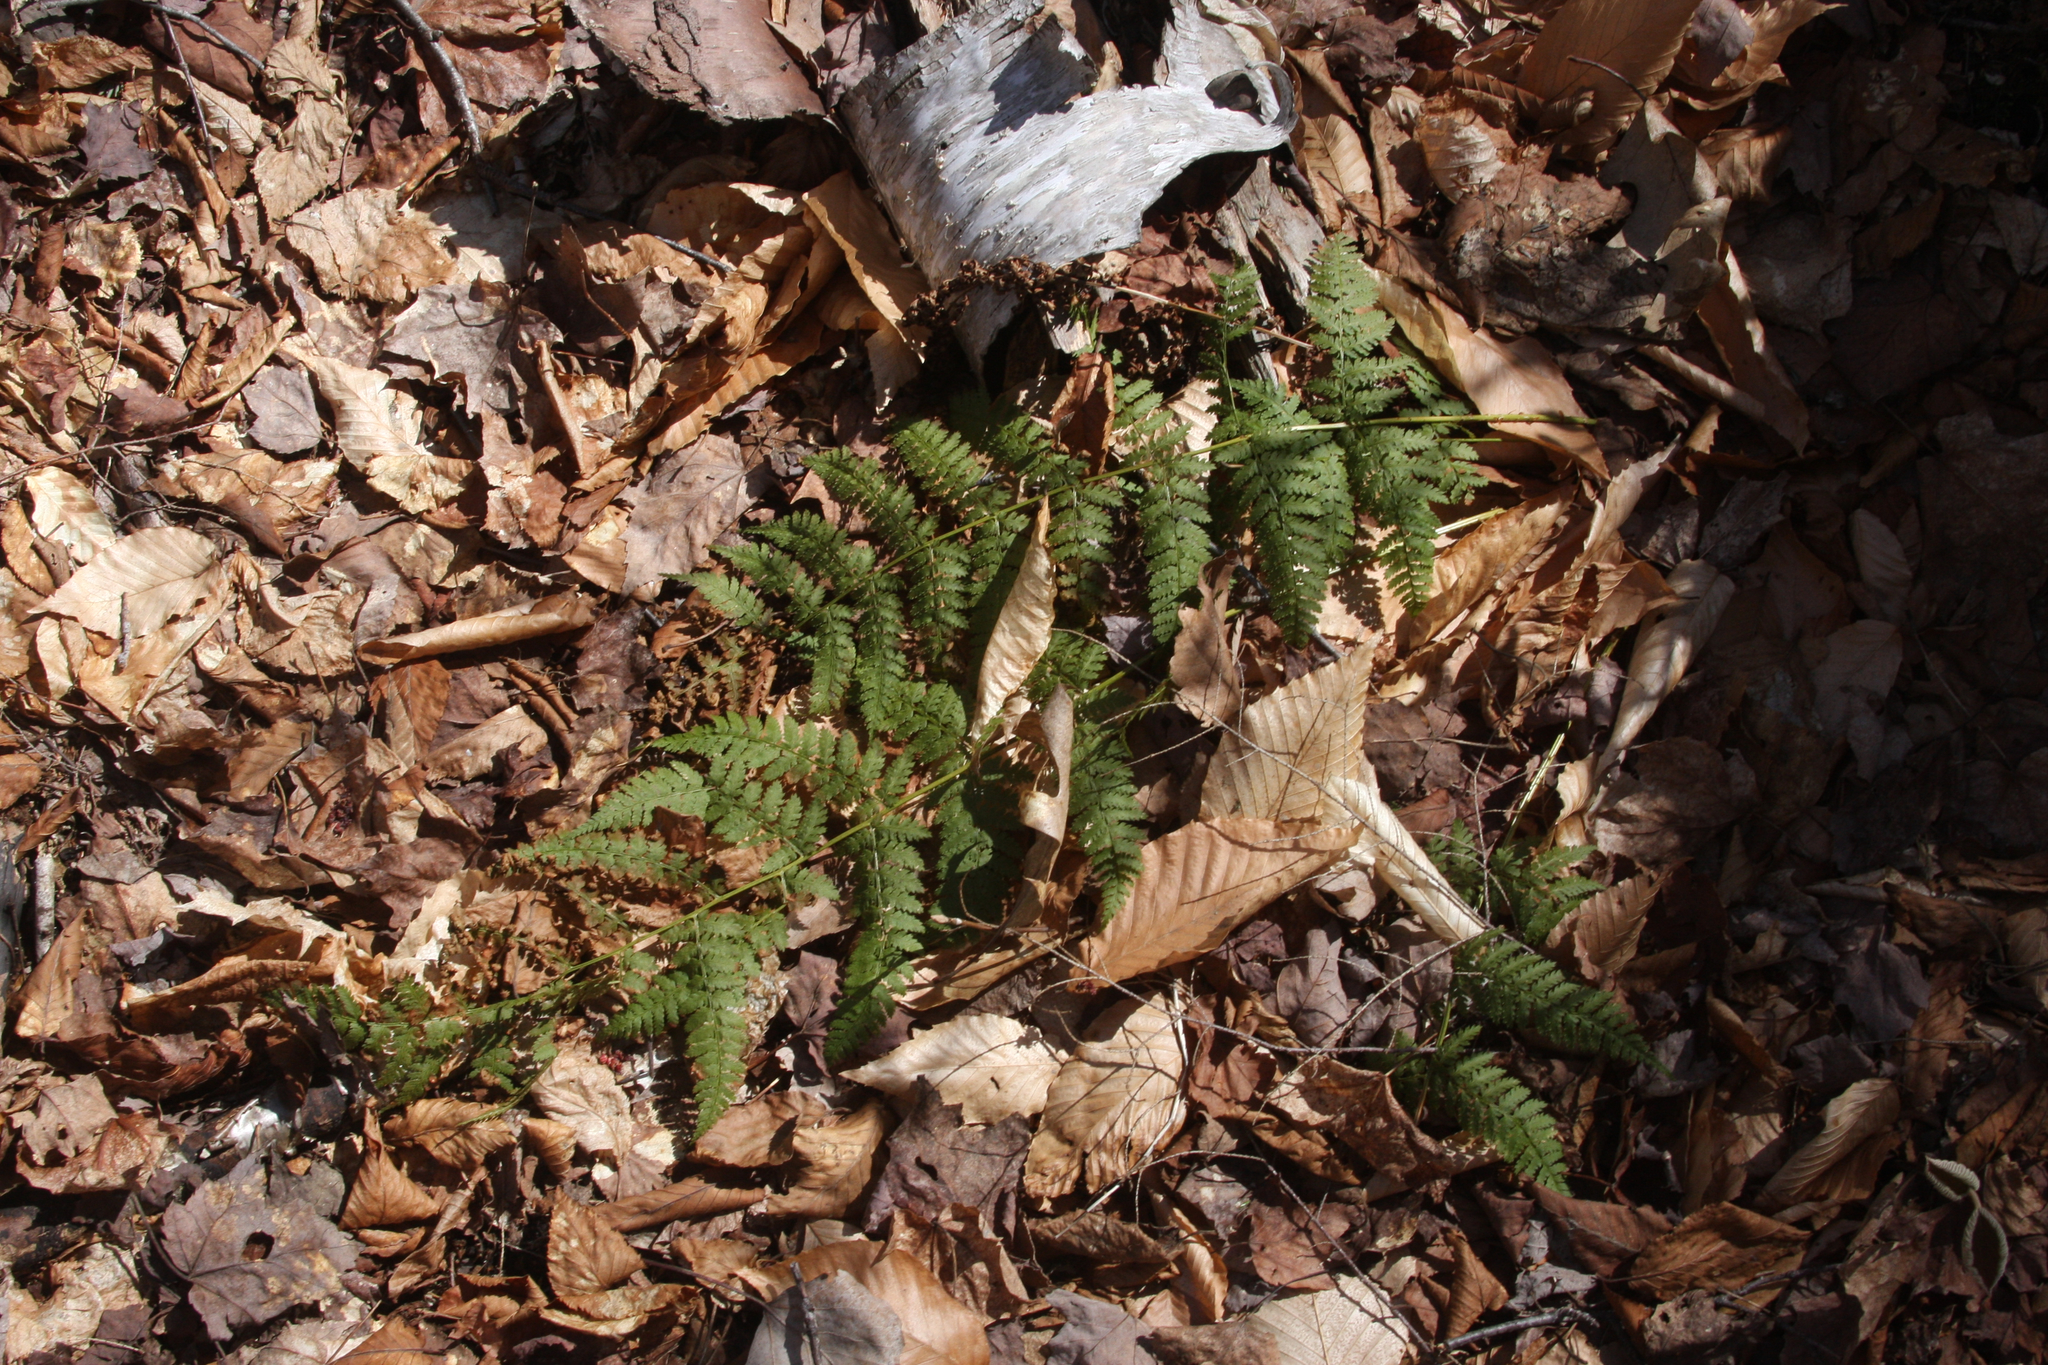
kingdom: Plantae
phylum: Tracheophyta
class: Polypodiopsida
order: Polypodiales
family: Dryopteridaceae
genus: Dryopteris
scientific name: Dryopteris intermedia
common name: Evergreen wood fern
